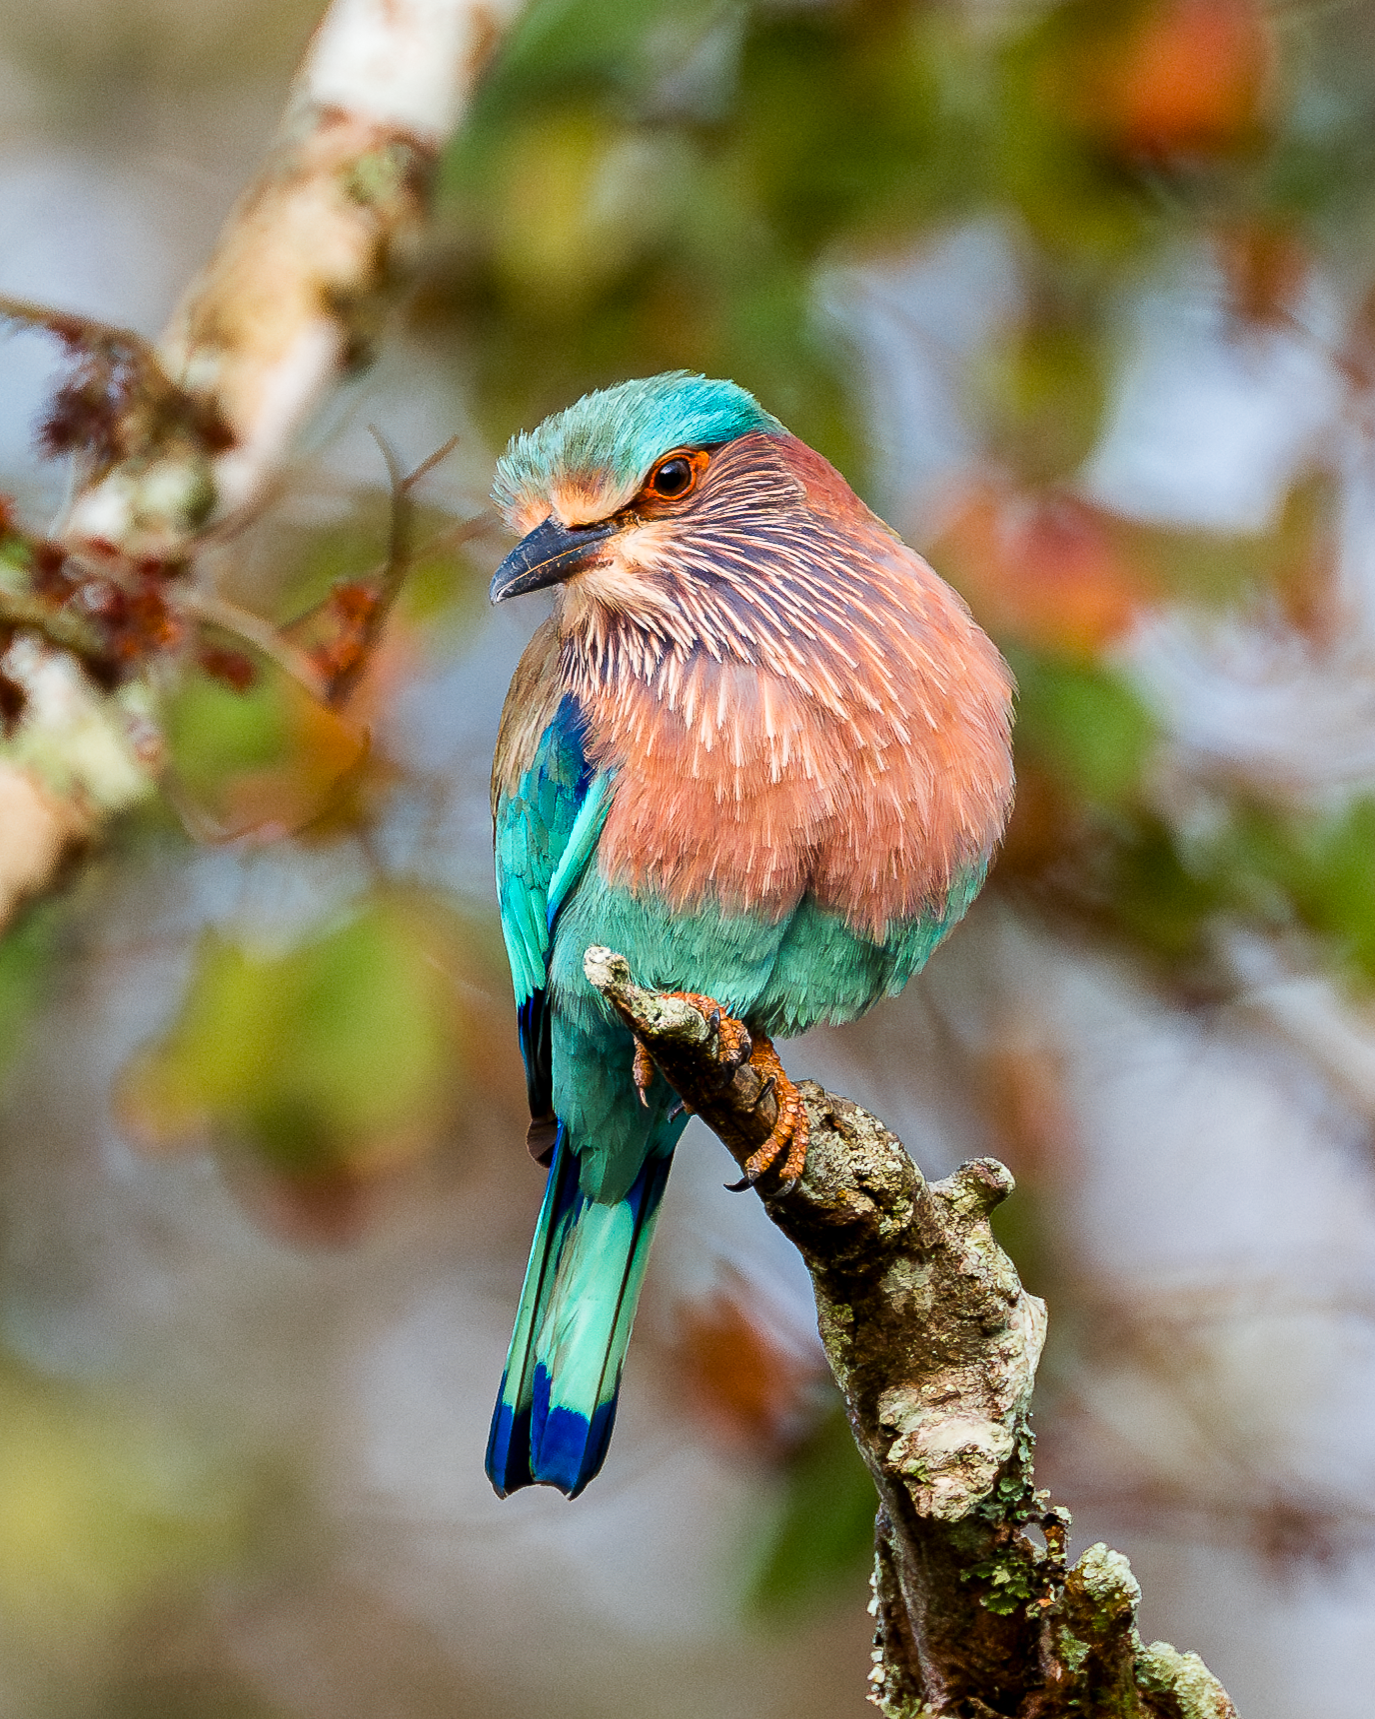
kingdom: Animalia
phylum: Chordata
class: Aves
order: Coraciiformes
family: Coraciidae
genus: Coracias
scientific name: Coracias benghalensis
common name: Indian roller
